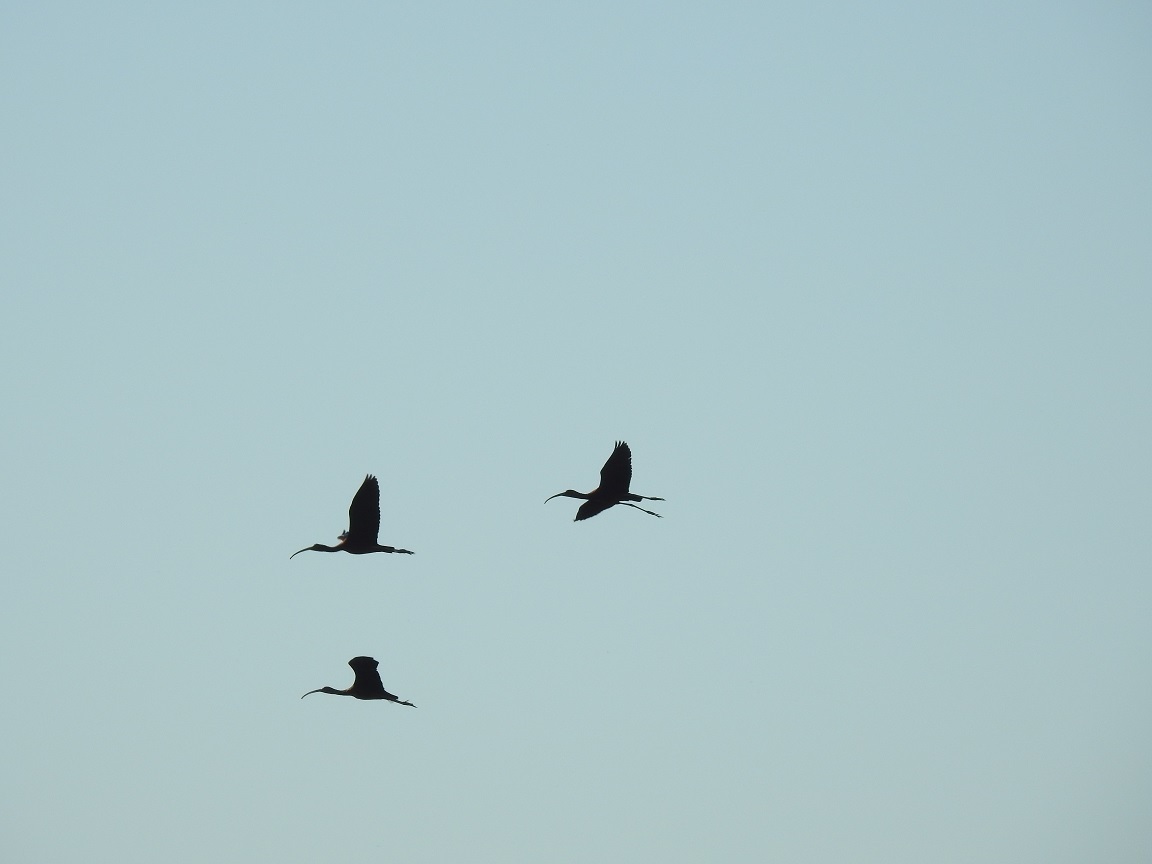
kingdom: Animalia
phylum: Chordata
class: Aves
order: Pelecaniformes
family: Threskiornithidae
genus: Plegadis
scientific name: Plegadis falcinellus
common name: Glossy ibis
